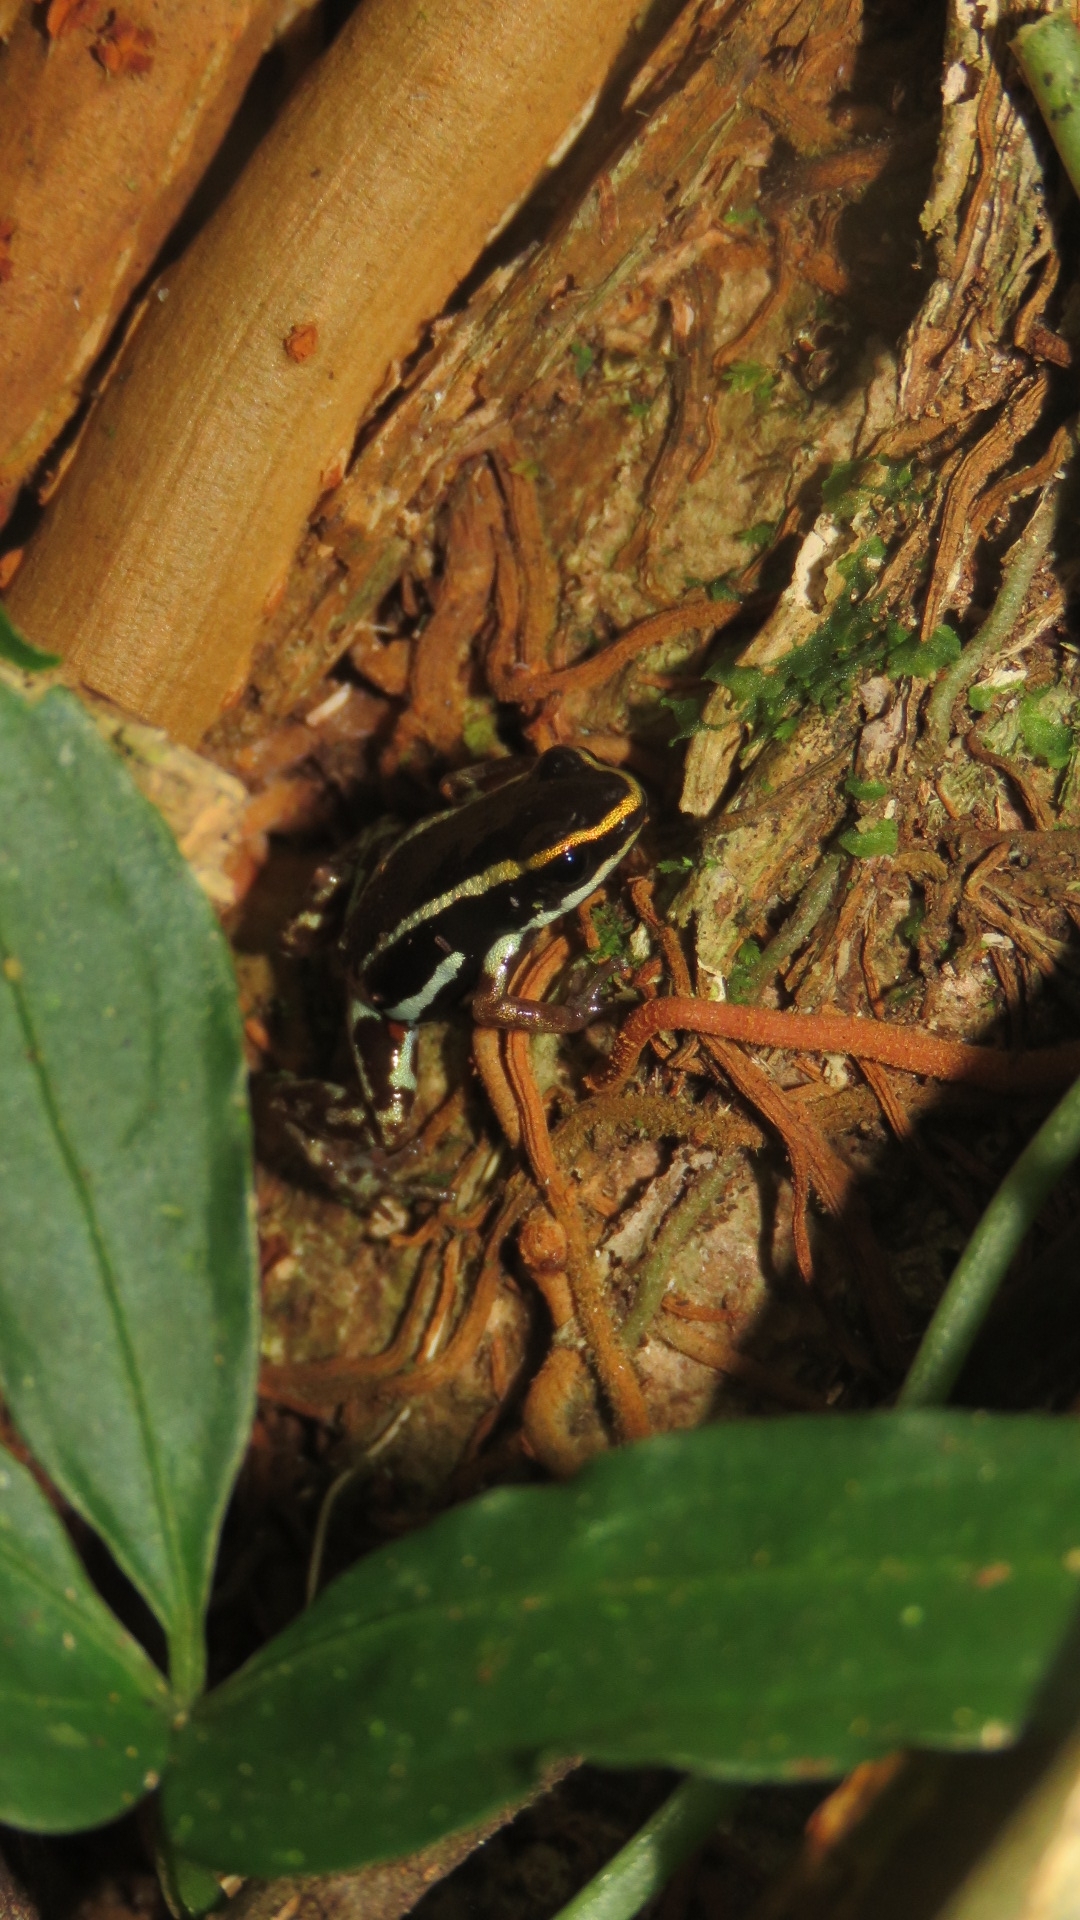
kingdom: Animalia
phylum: Chordata
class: Amphibia
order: Anura
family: Dendrobatidae
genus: Andinobates
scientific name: Andinobates claudiae
